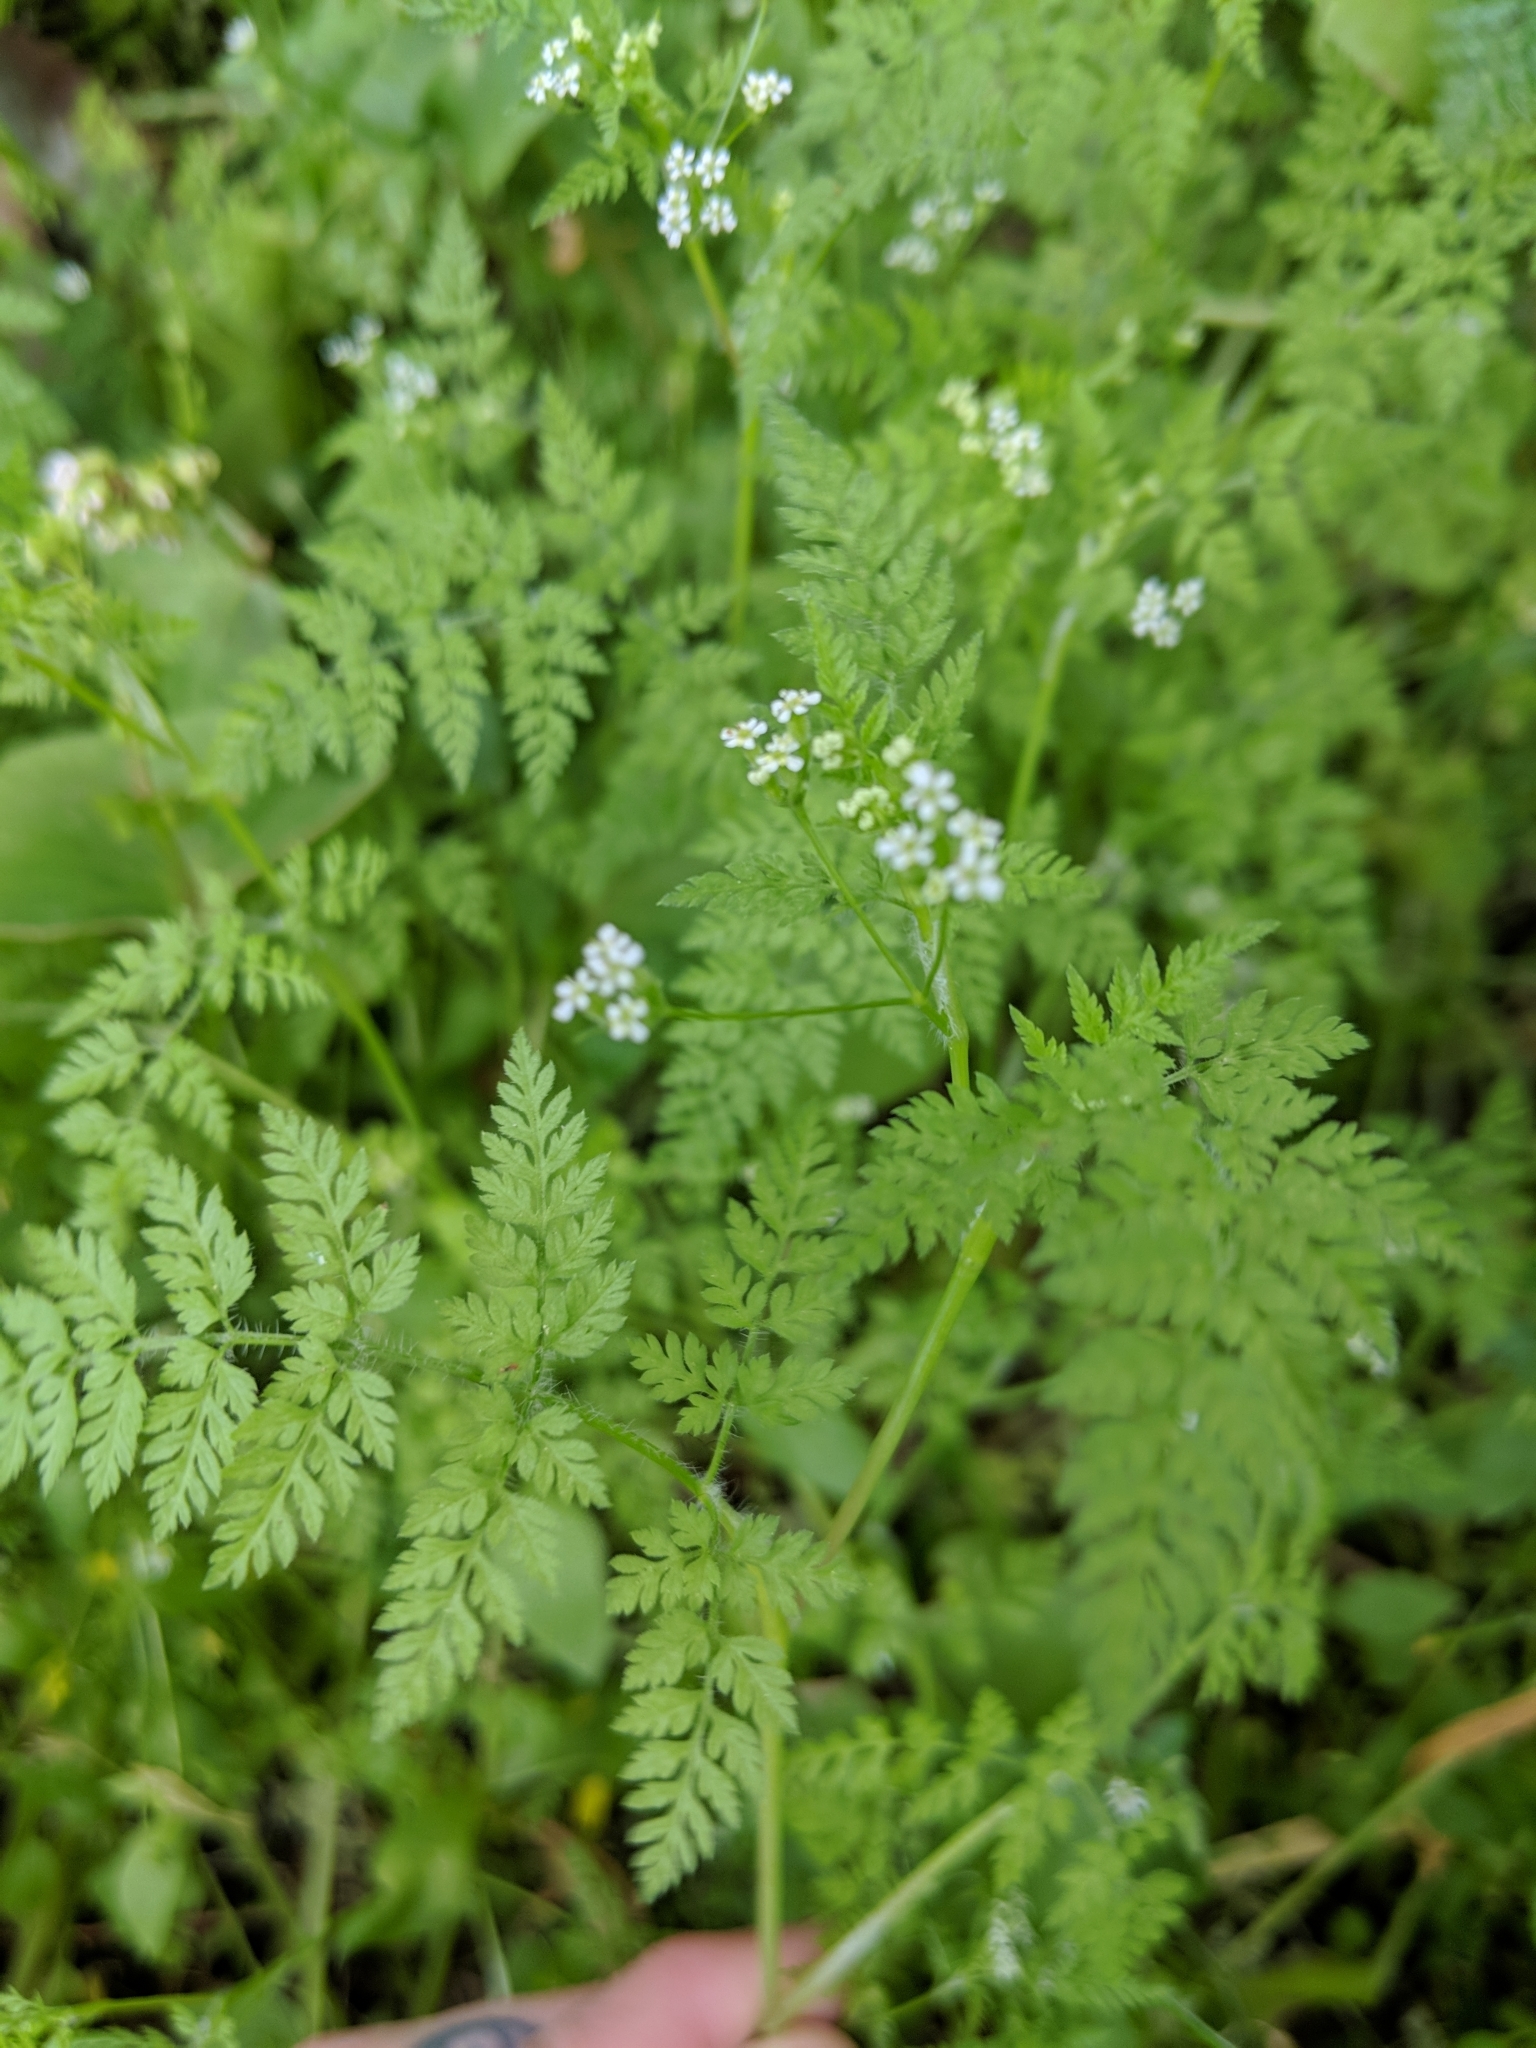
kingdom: Plantae
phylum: Tracheophyta
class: Magnoliopsida
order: Apiales
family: Apiaceae
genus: Anthriscus
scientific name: Anthriscus caucalis
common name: Bur chervil
